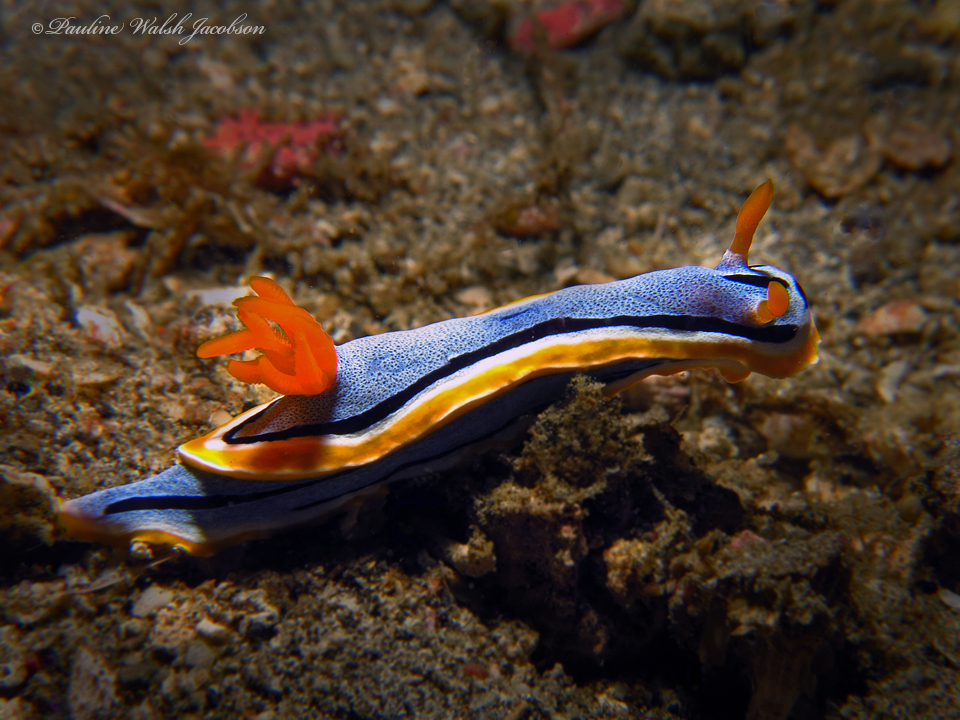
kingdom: Animalia
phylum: Mollusca
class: Gastropoda
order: Nudibranchia
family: Chromodorididae
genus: Chromodoris
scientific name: Chromodoris annae
